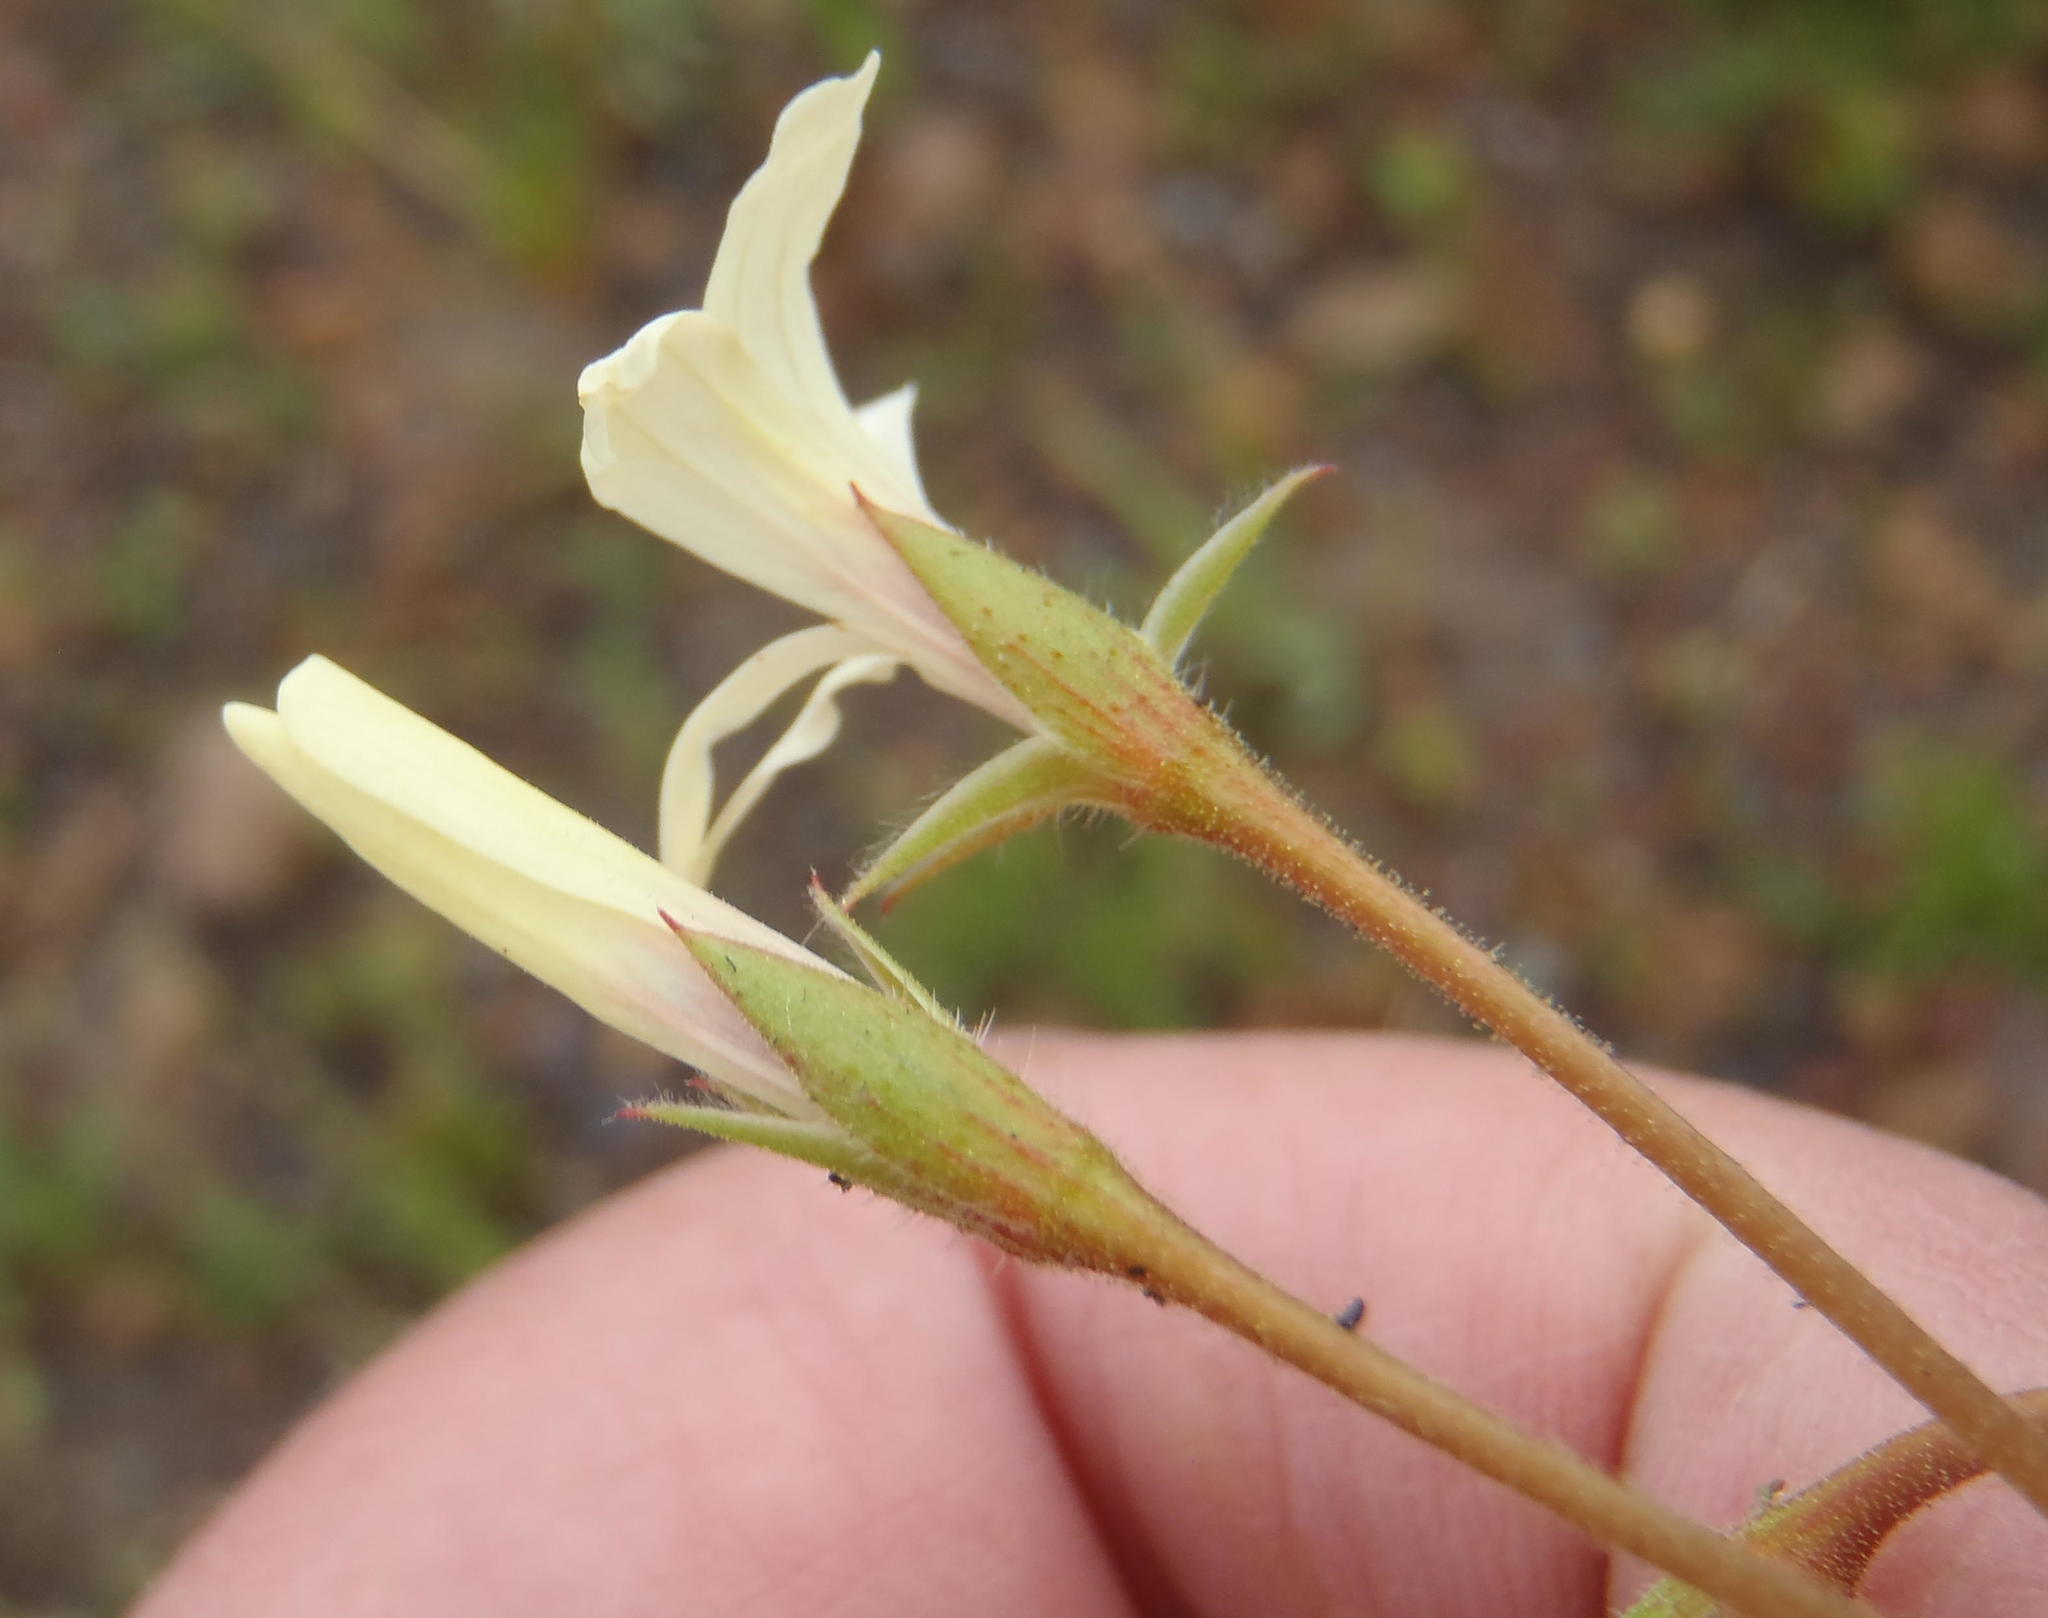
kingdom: Plantae
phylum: Tracheophyta
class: Magnoliopsida
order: Geraniales
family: Geraniaceae
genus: Pelargonium
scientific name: Pelargonium alchemilloides
